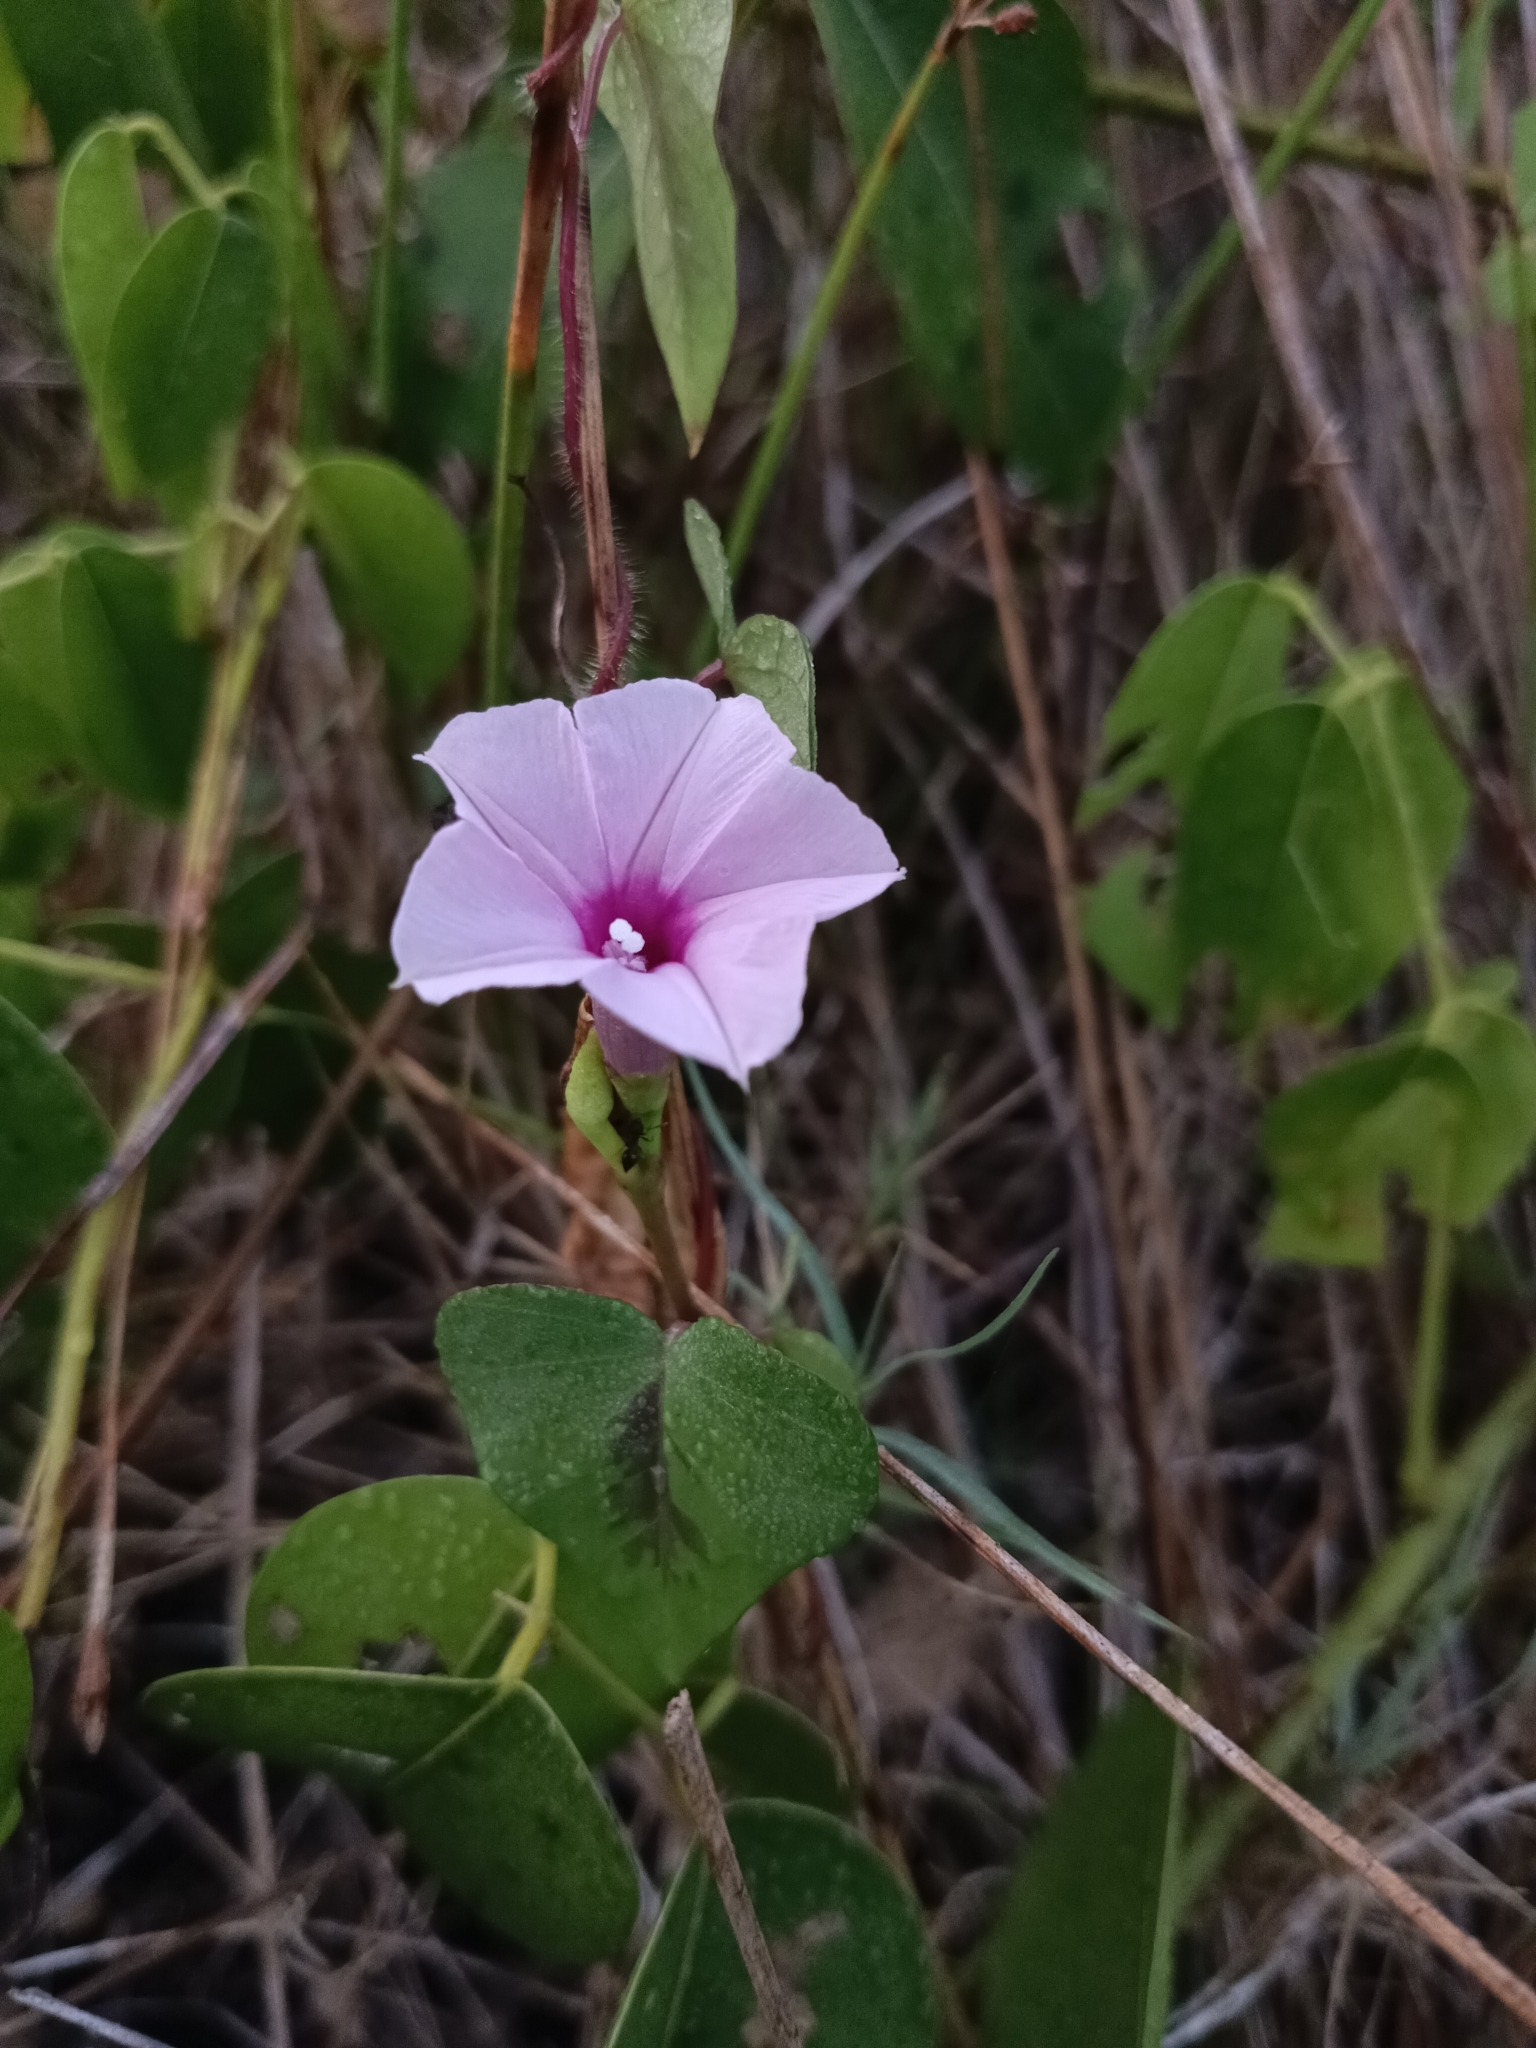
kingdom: Plantae
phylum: Tracheophyta
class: Magnoliopsida
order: Solanales
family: Convolvulaceae
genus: Ipomoea
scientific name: Ipomoea triloba
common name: Little-bell
